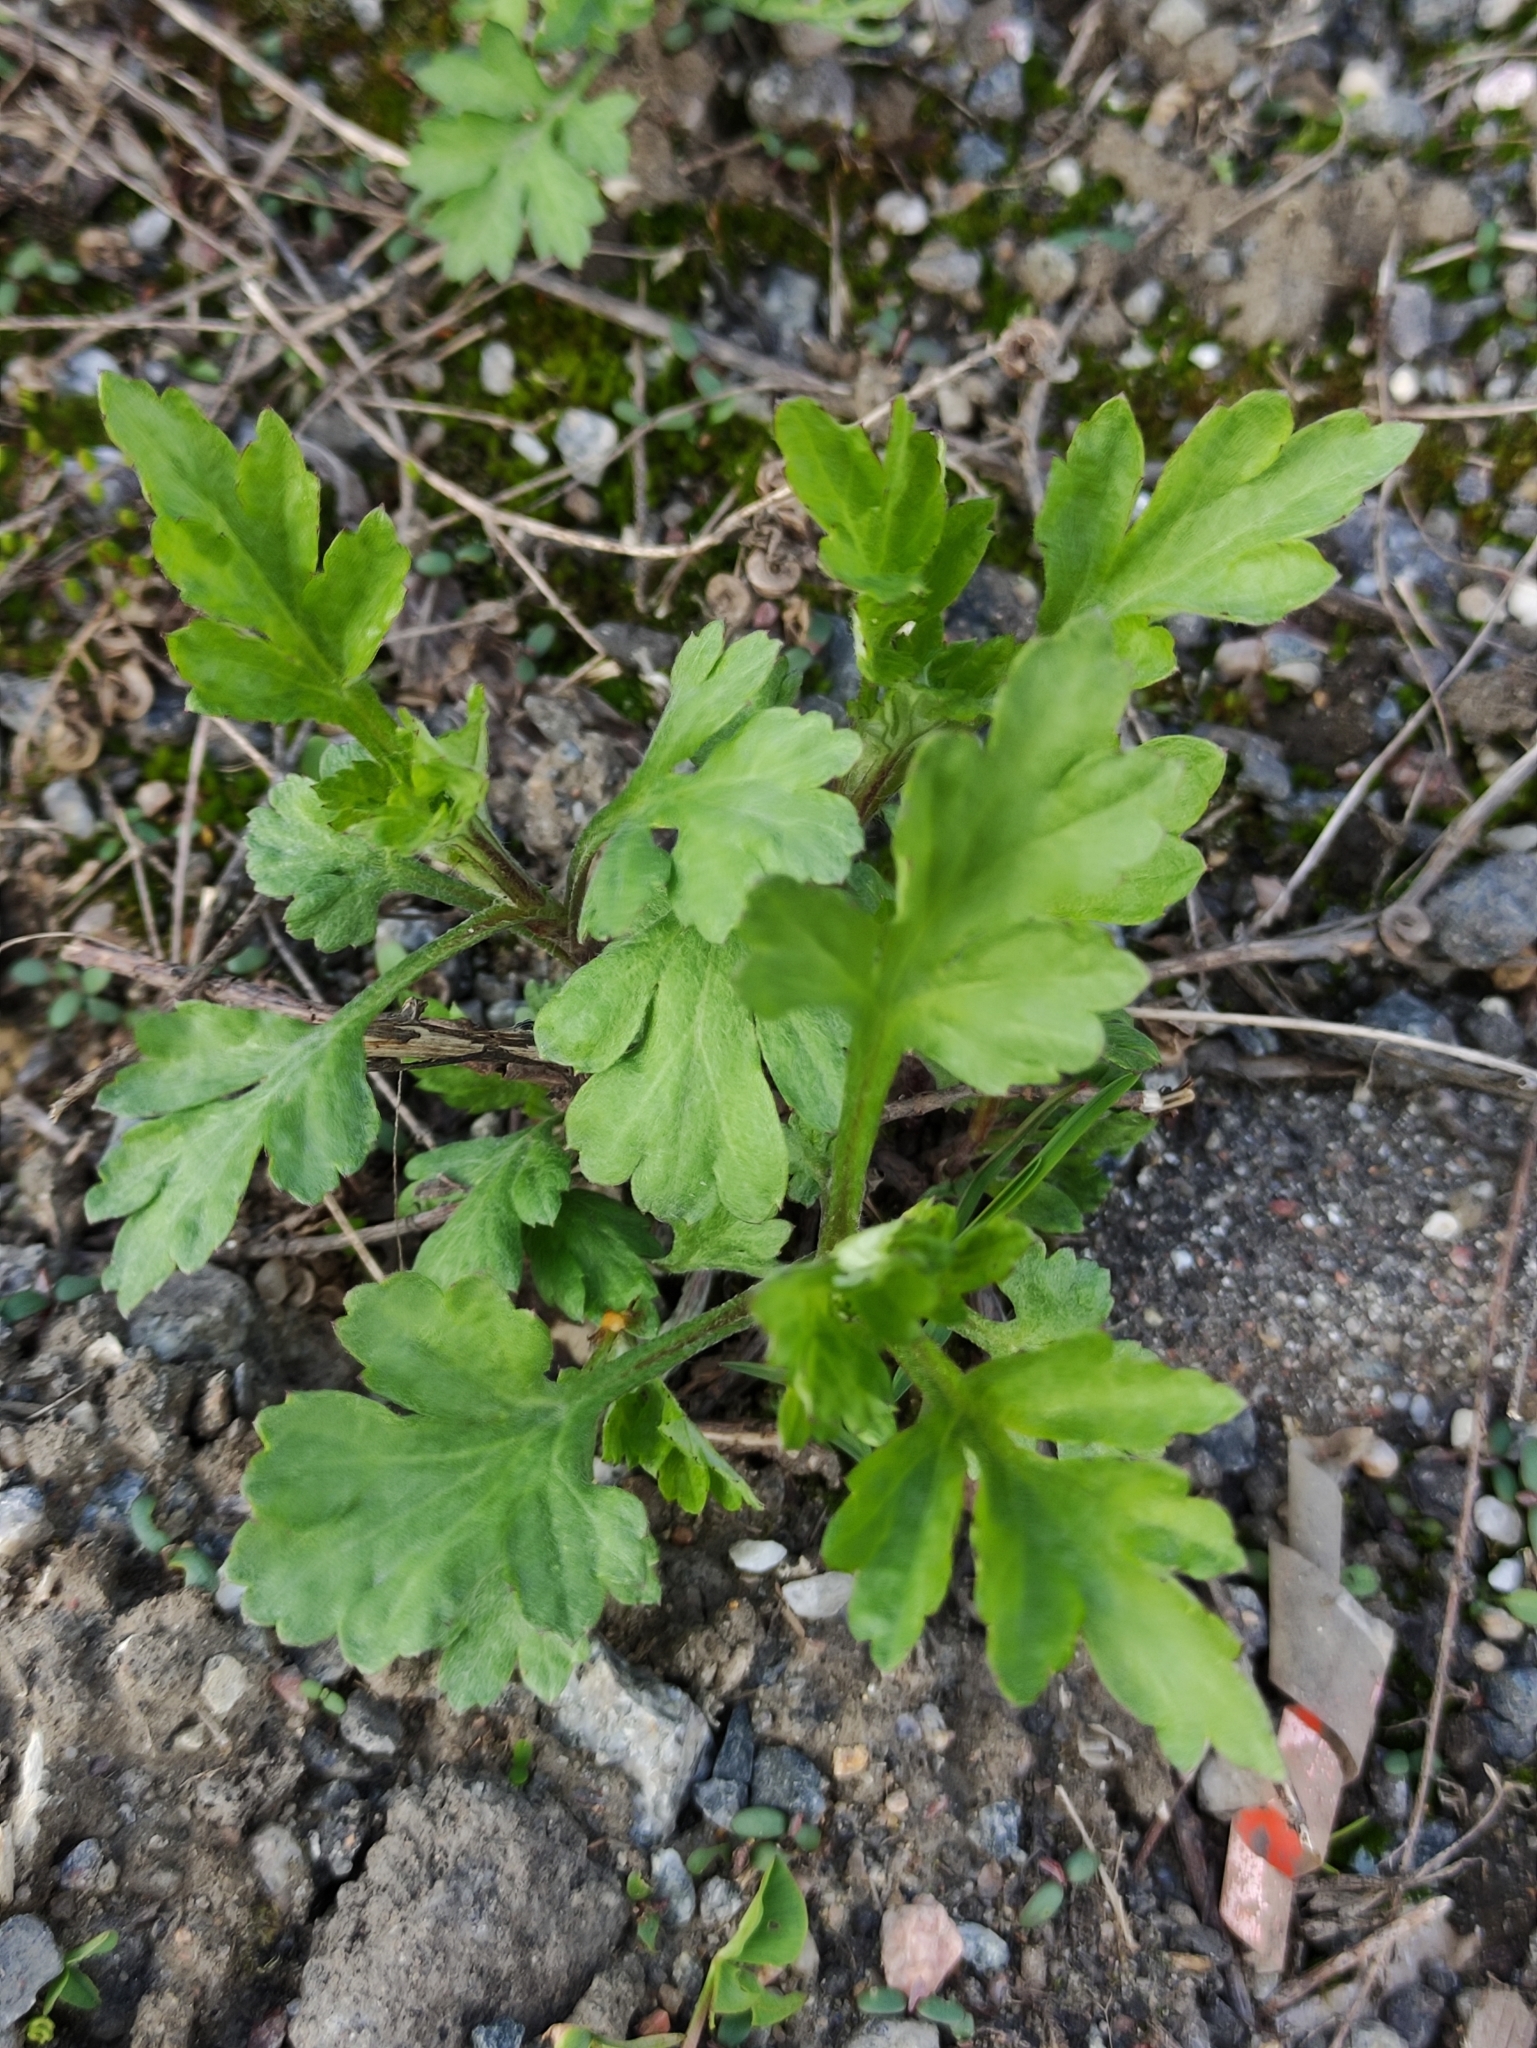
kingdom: Plantae
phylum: Tracheophyta
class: Magnoliopsida
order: Asterales
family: Asteraceae
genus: Artemisia
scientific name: Artemisia vulgaris
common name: Mugwort
